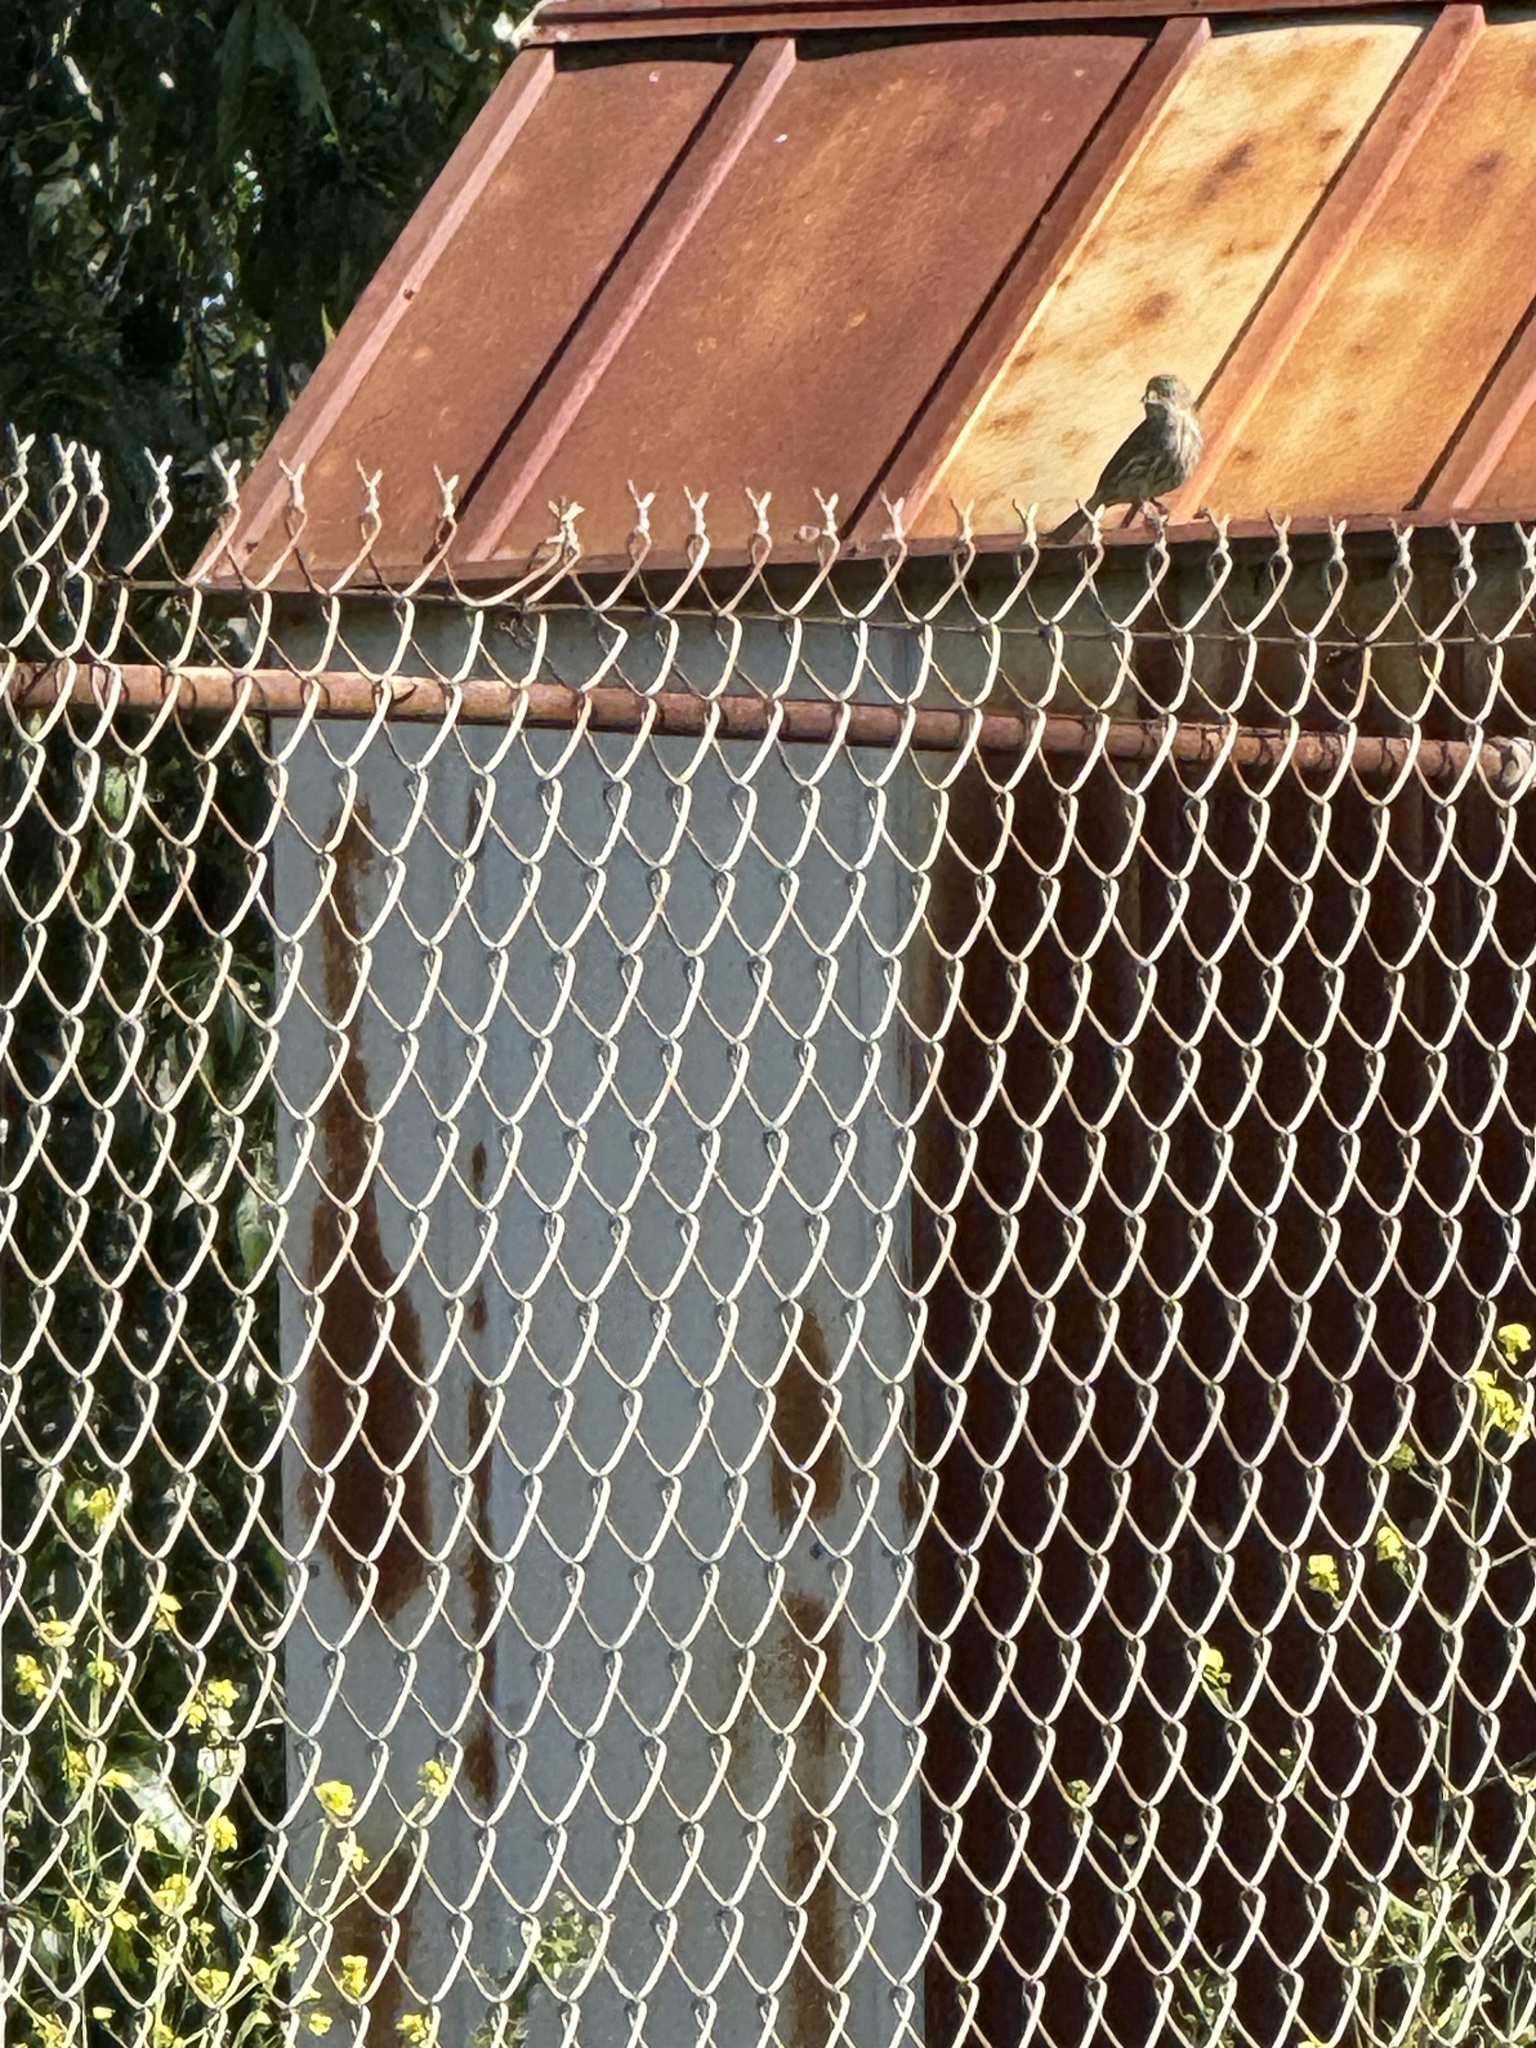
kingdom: Animalia
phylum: Chordata
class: Aves
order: Passeriformes
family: Fringillidae
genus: Haemorhous
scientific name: Haemorhous mexicanus
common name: House finch
